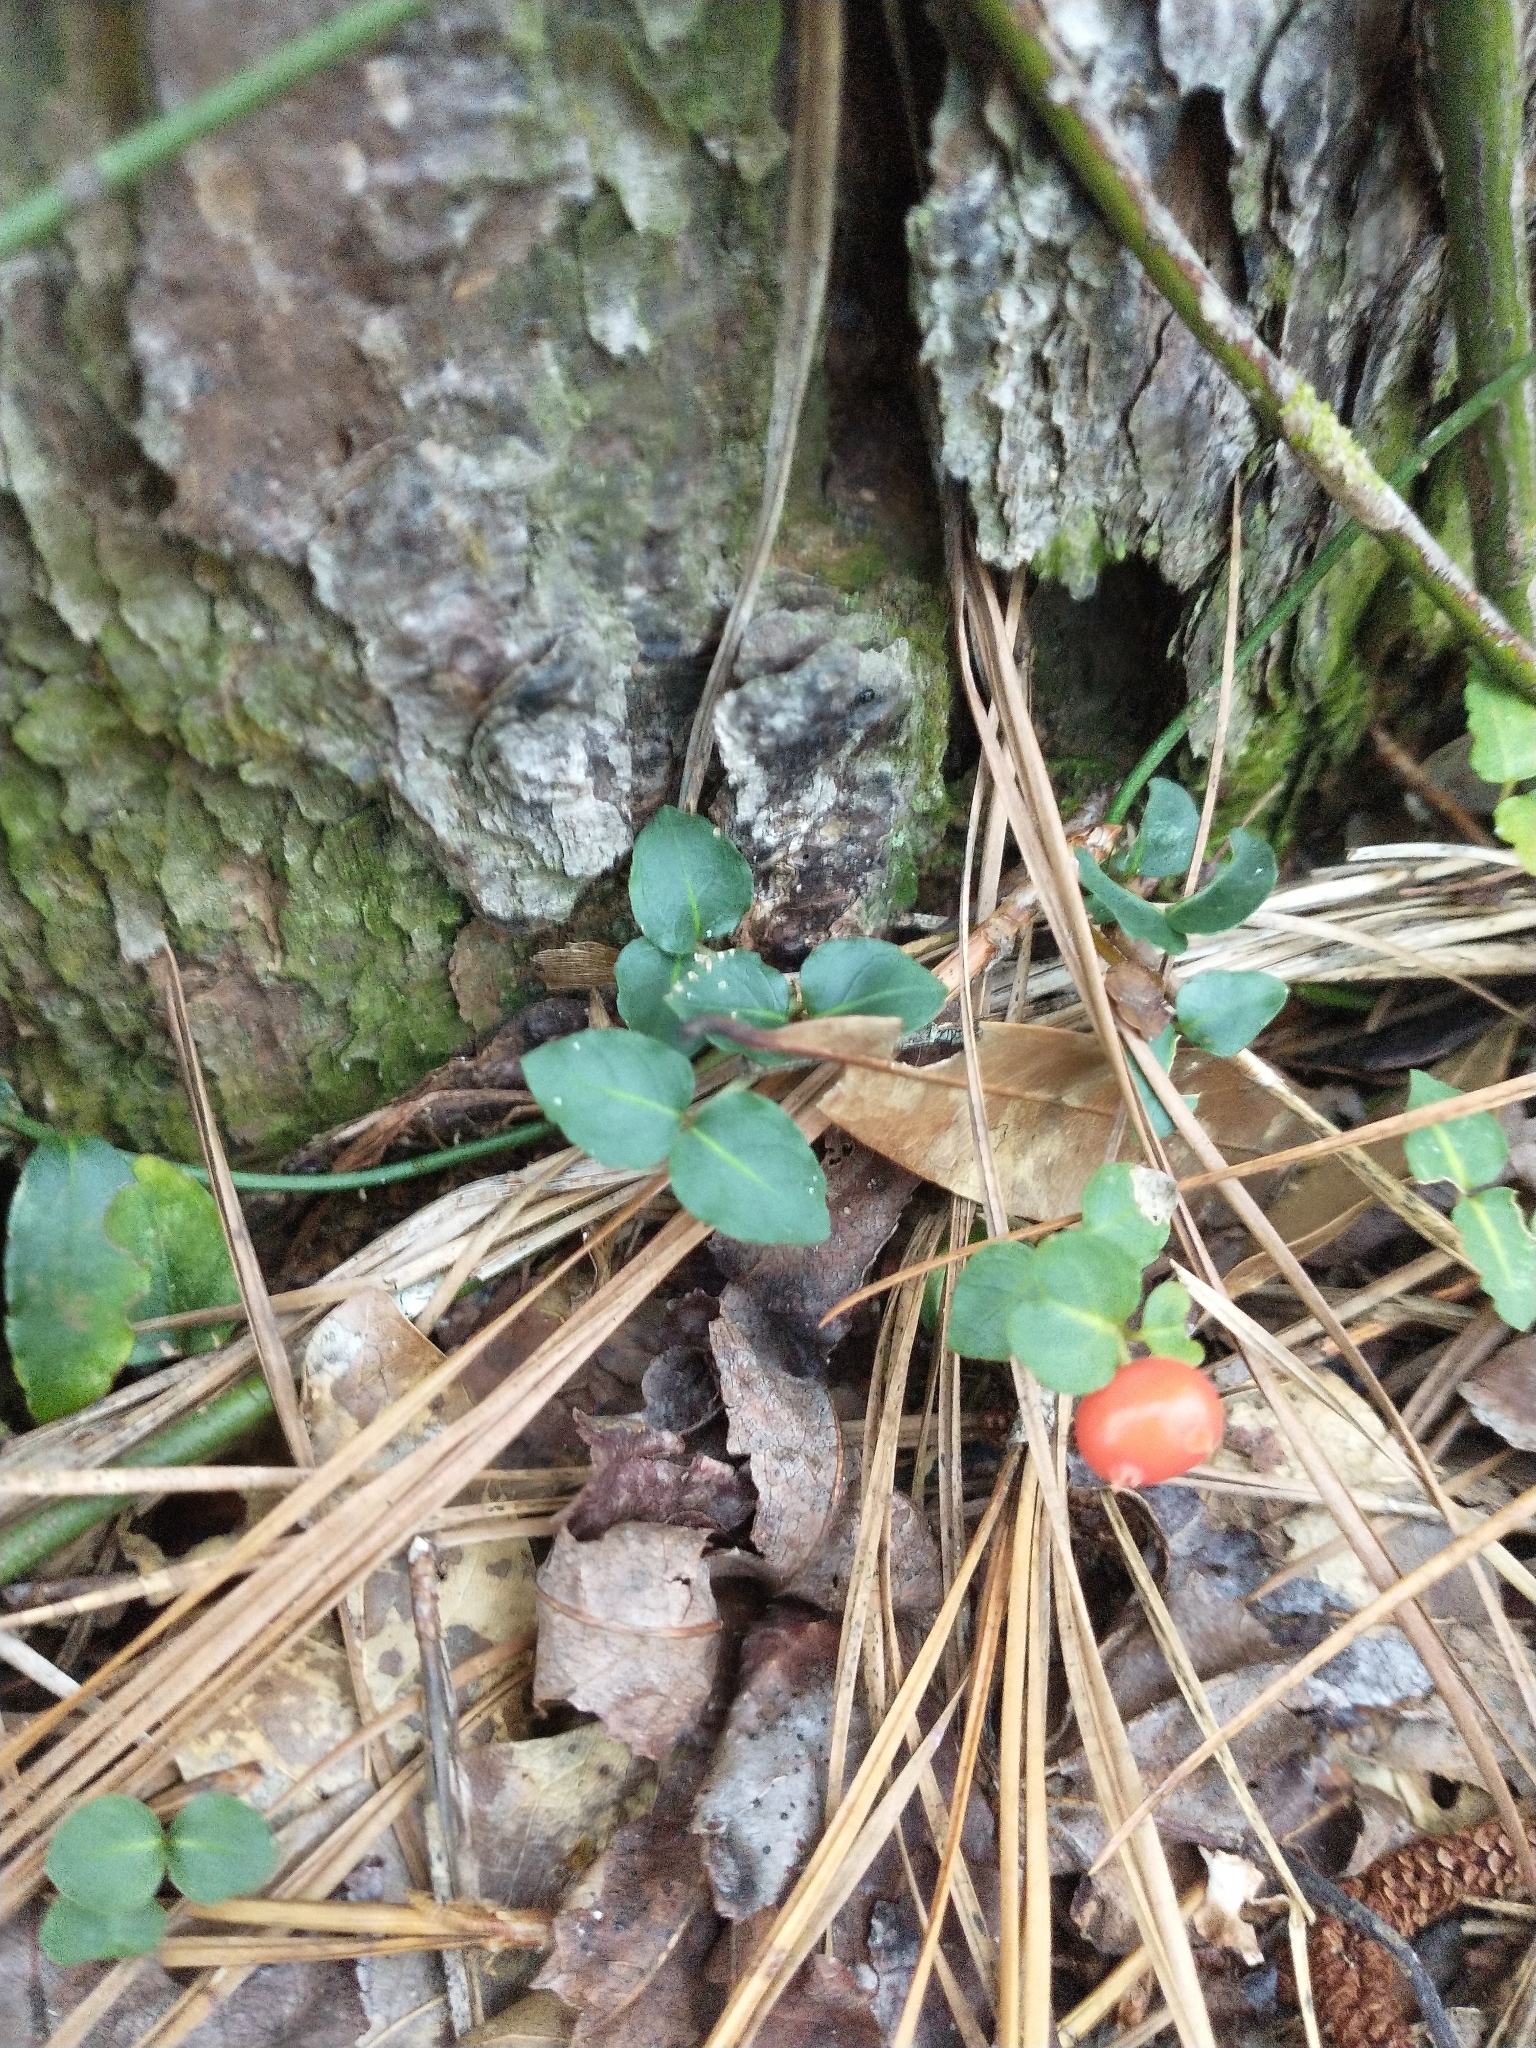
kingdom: Plantae
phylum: Tracheophyta
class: Magnoliopsida
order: Gentianales
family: Rubiaceae
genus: Mitchella
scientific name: Mitchella repens
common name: Partridge-berry
